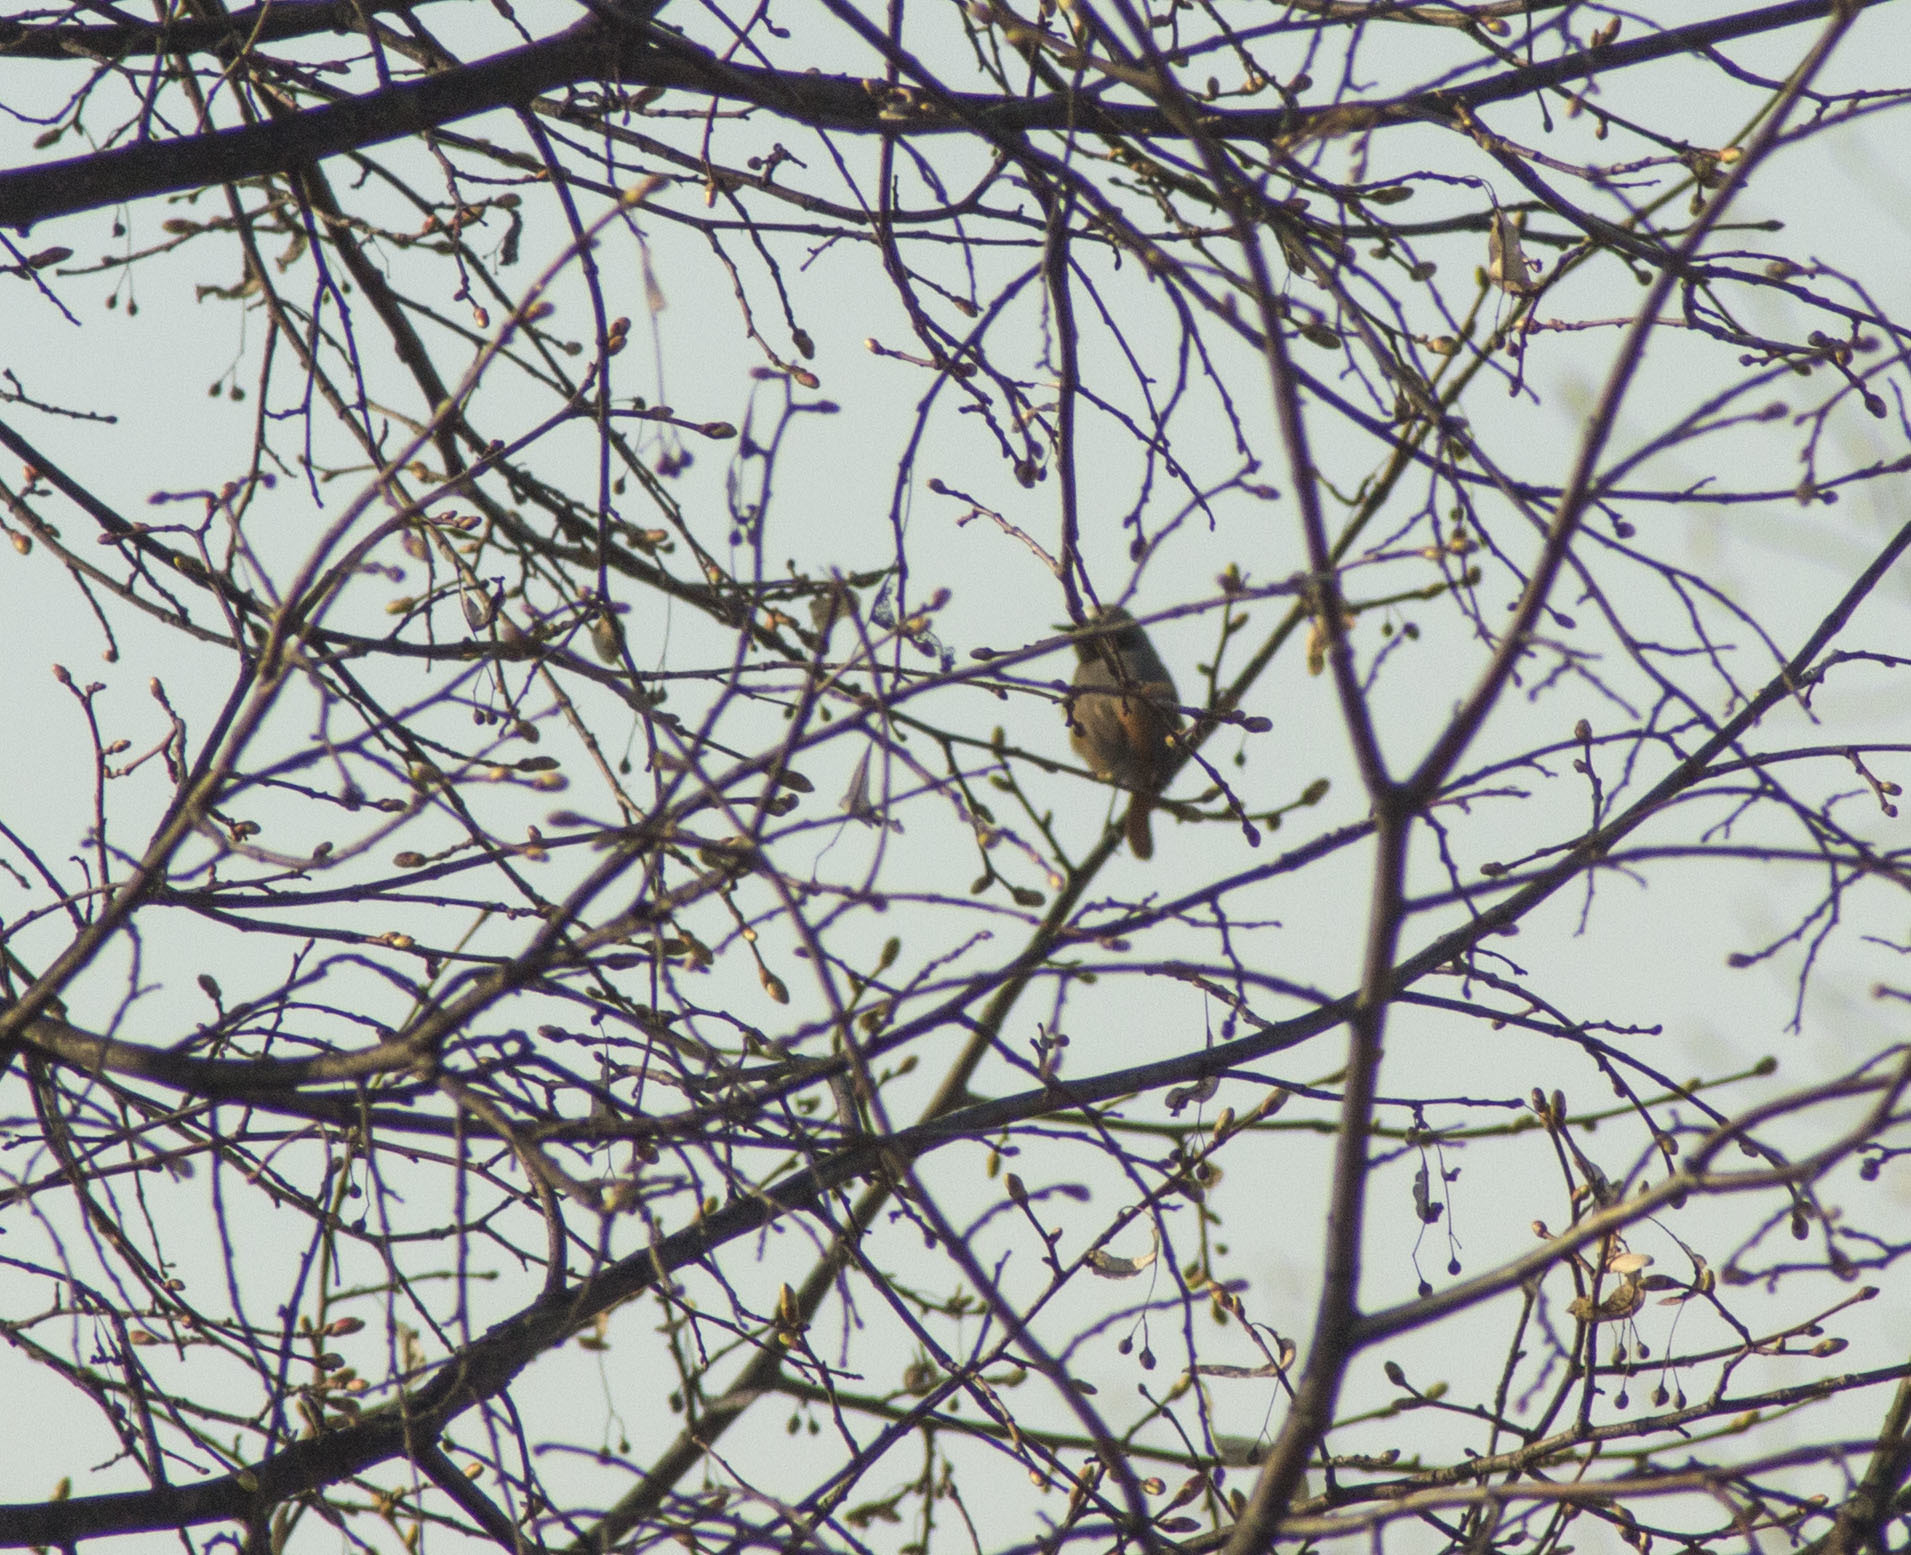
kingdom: Animalia
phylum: Chordata
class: Aves
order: Passeriformes
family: Muscicapidae
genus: Phoenicurus
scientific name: Phoenicurus phoenicurus
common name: Common redstart
